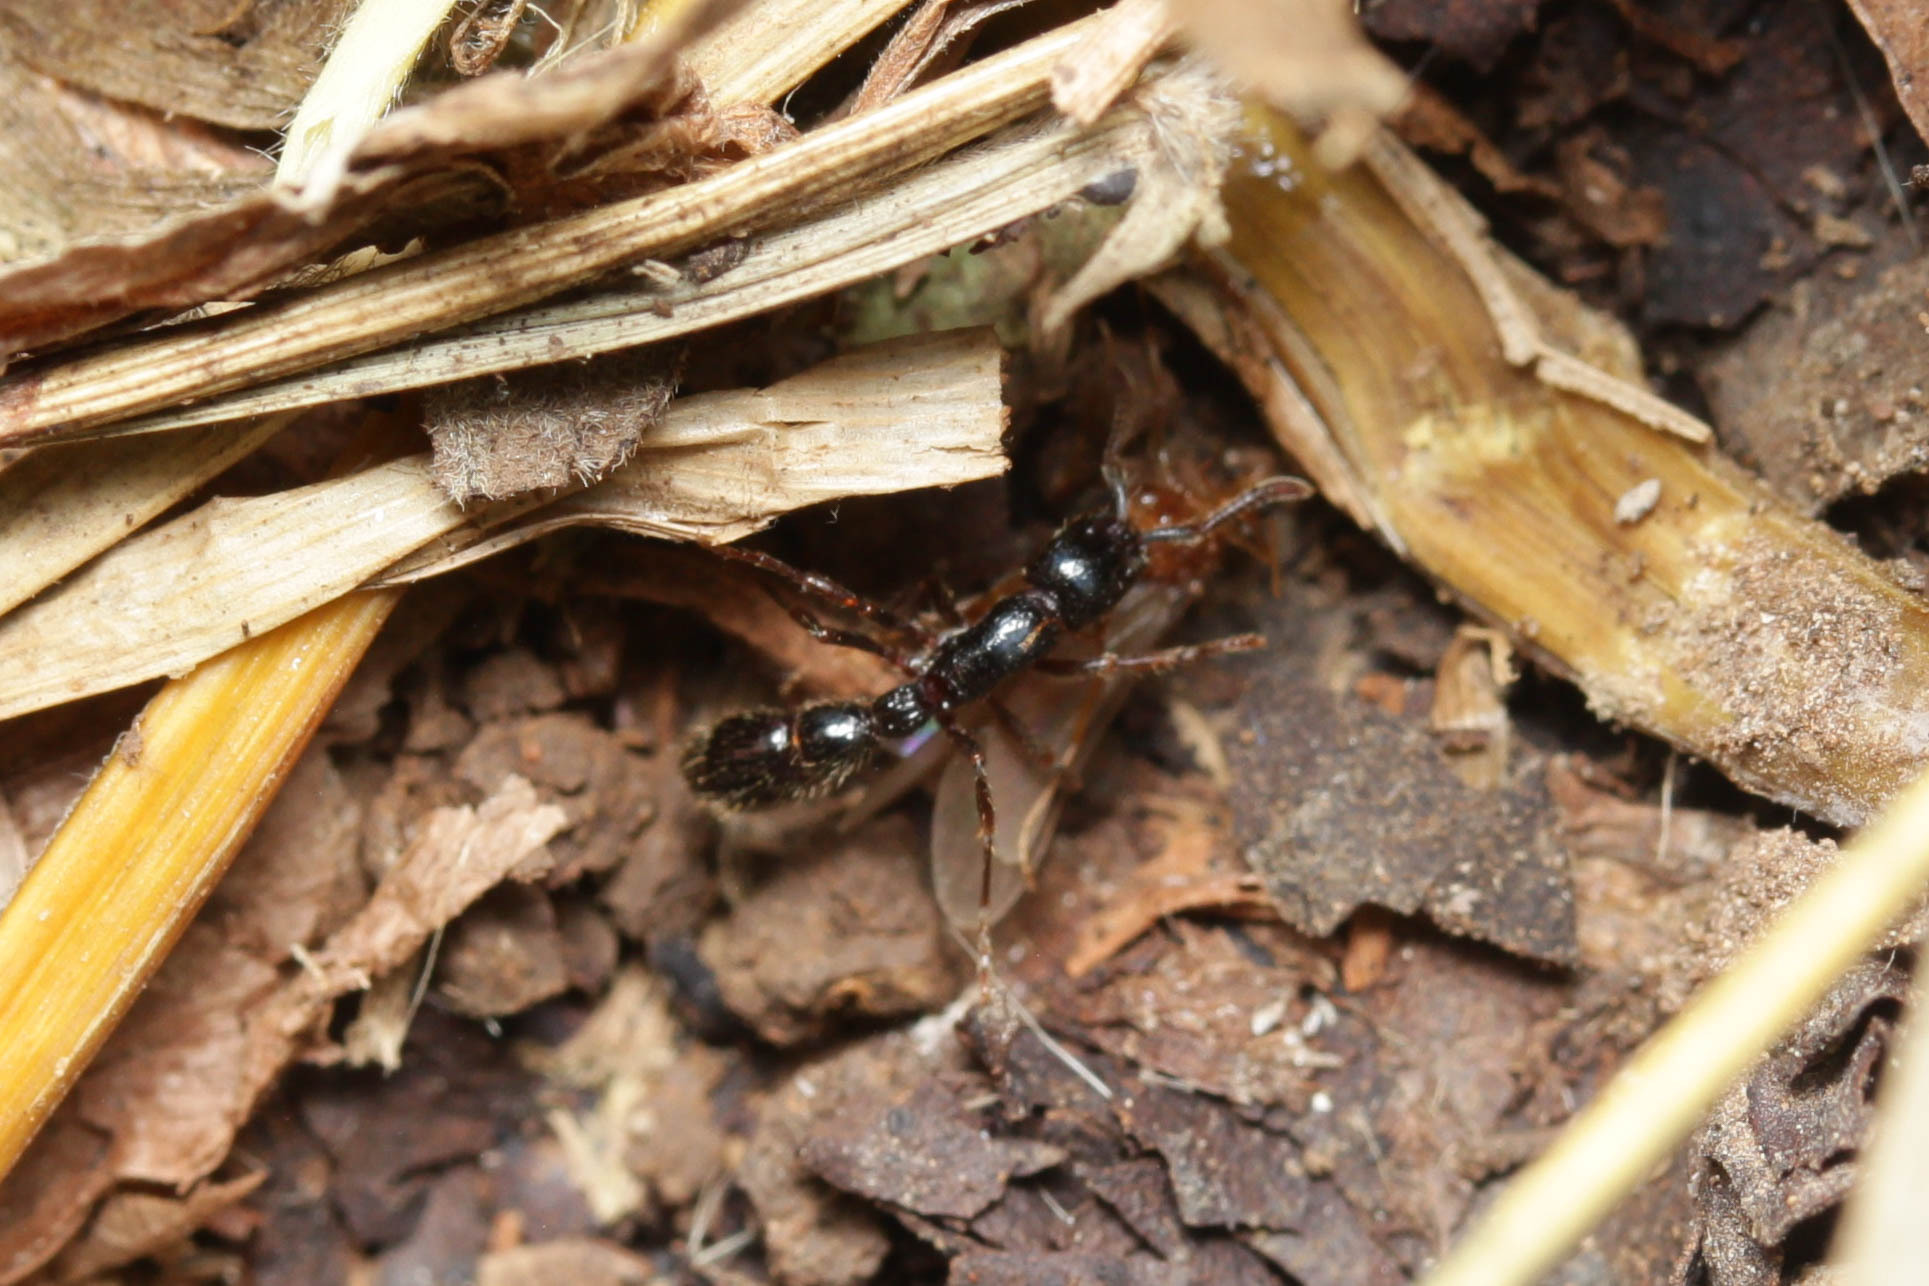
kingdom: Animalia
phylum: Arthropoda
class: Insecta
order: Hymenoptera
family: Formicidae
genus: Cerapachys
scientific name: Cerapachys sulcinodis
